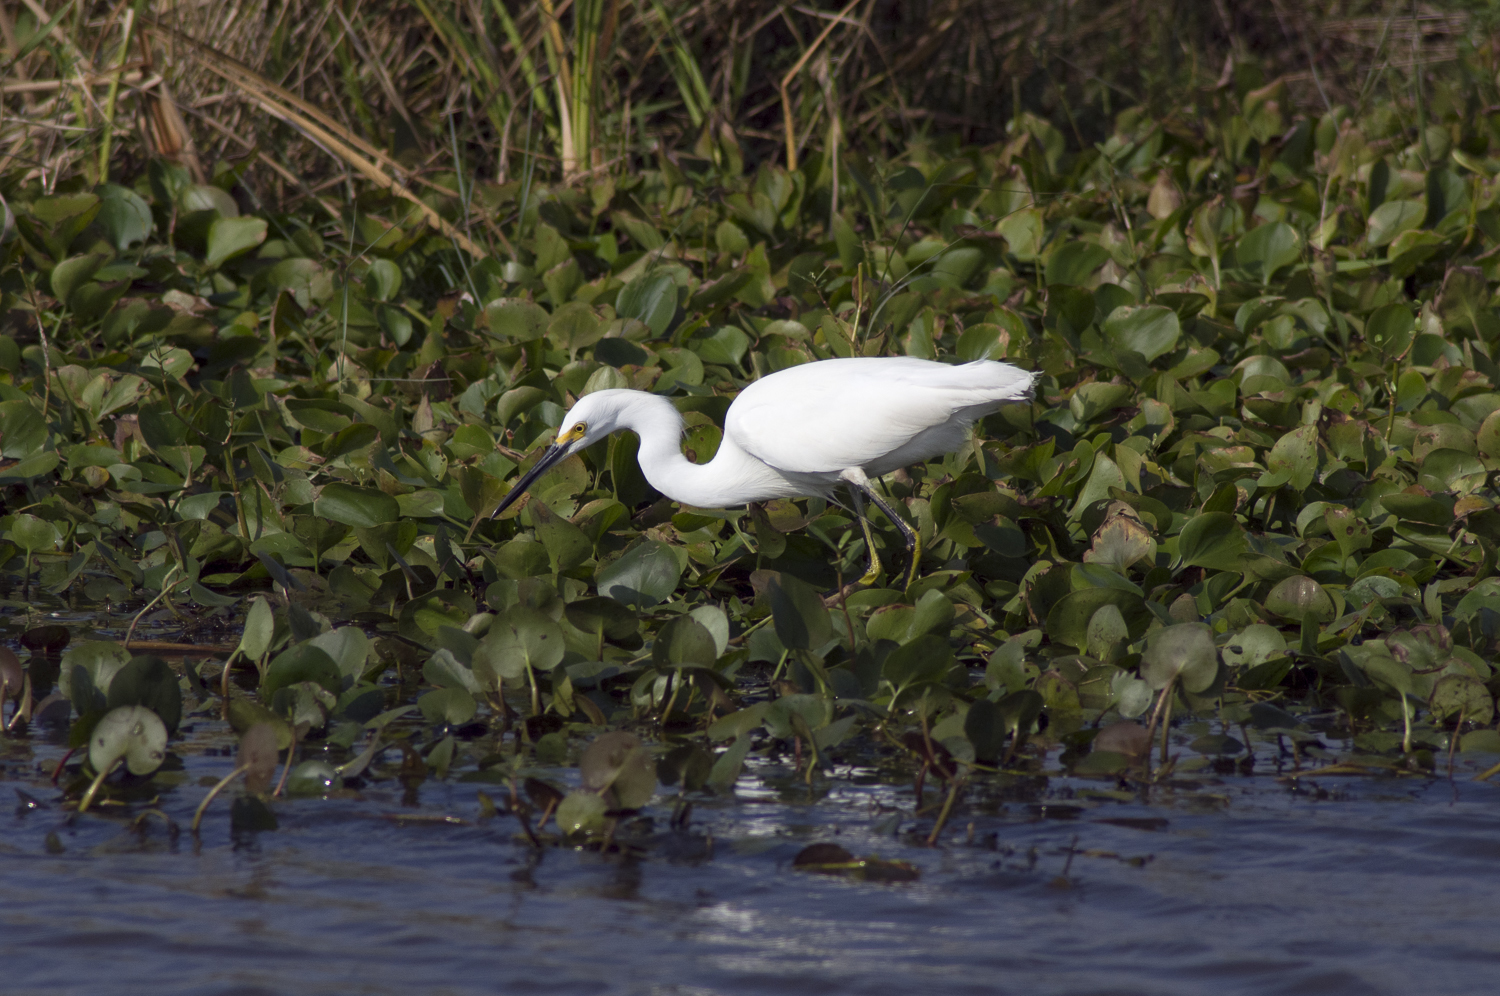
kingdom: Animalia
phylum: Chordata
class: Aves
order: Pelecaniformes
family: Ardeidae
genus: Egretta
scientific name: Egretta thula
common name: Snowy egret
